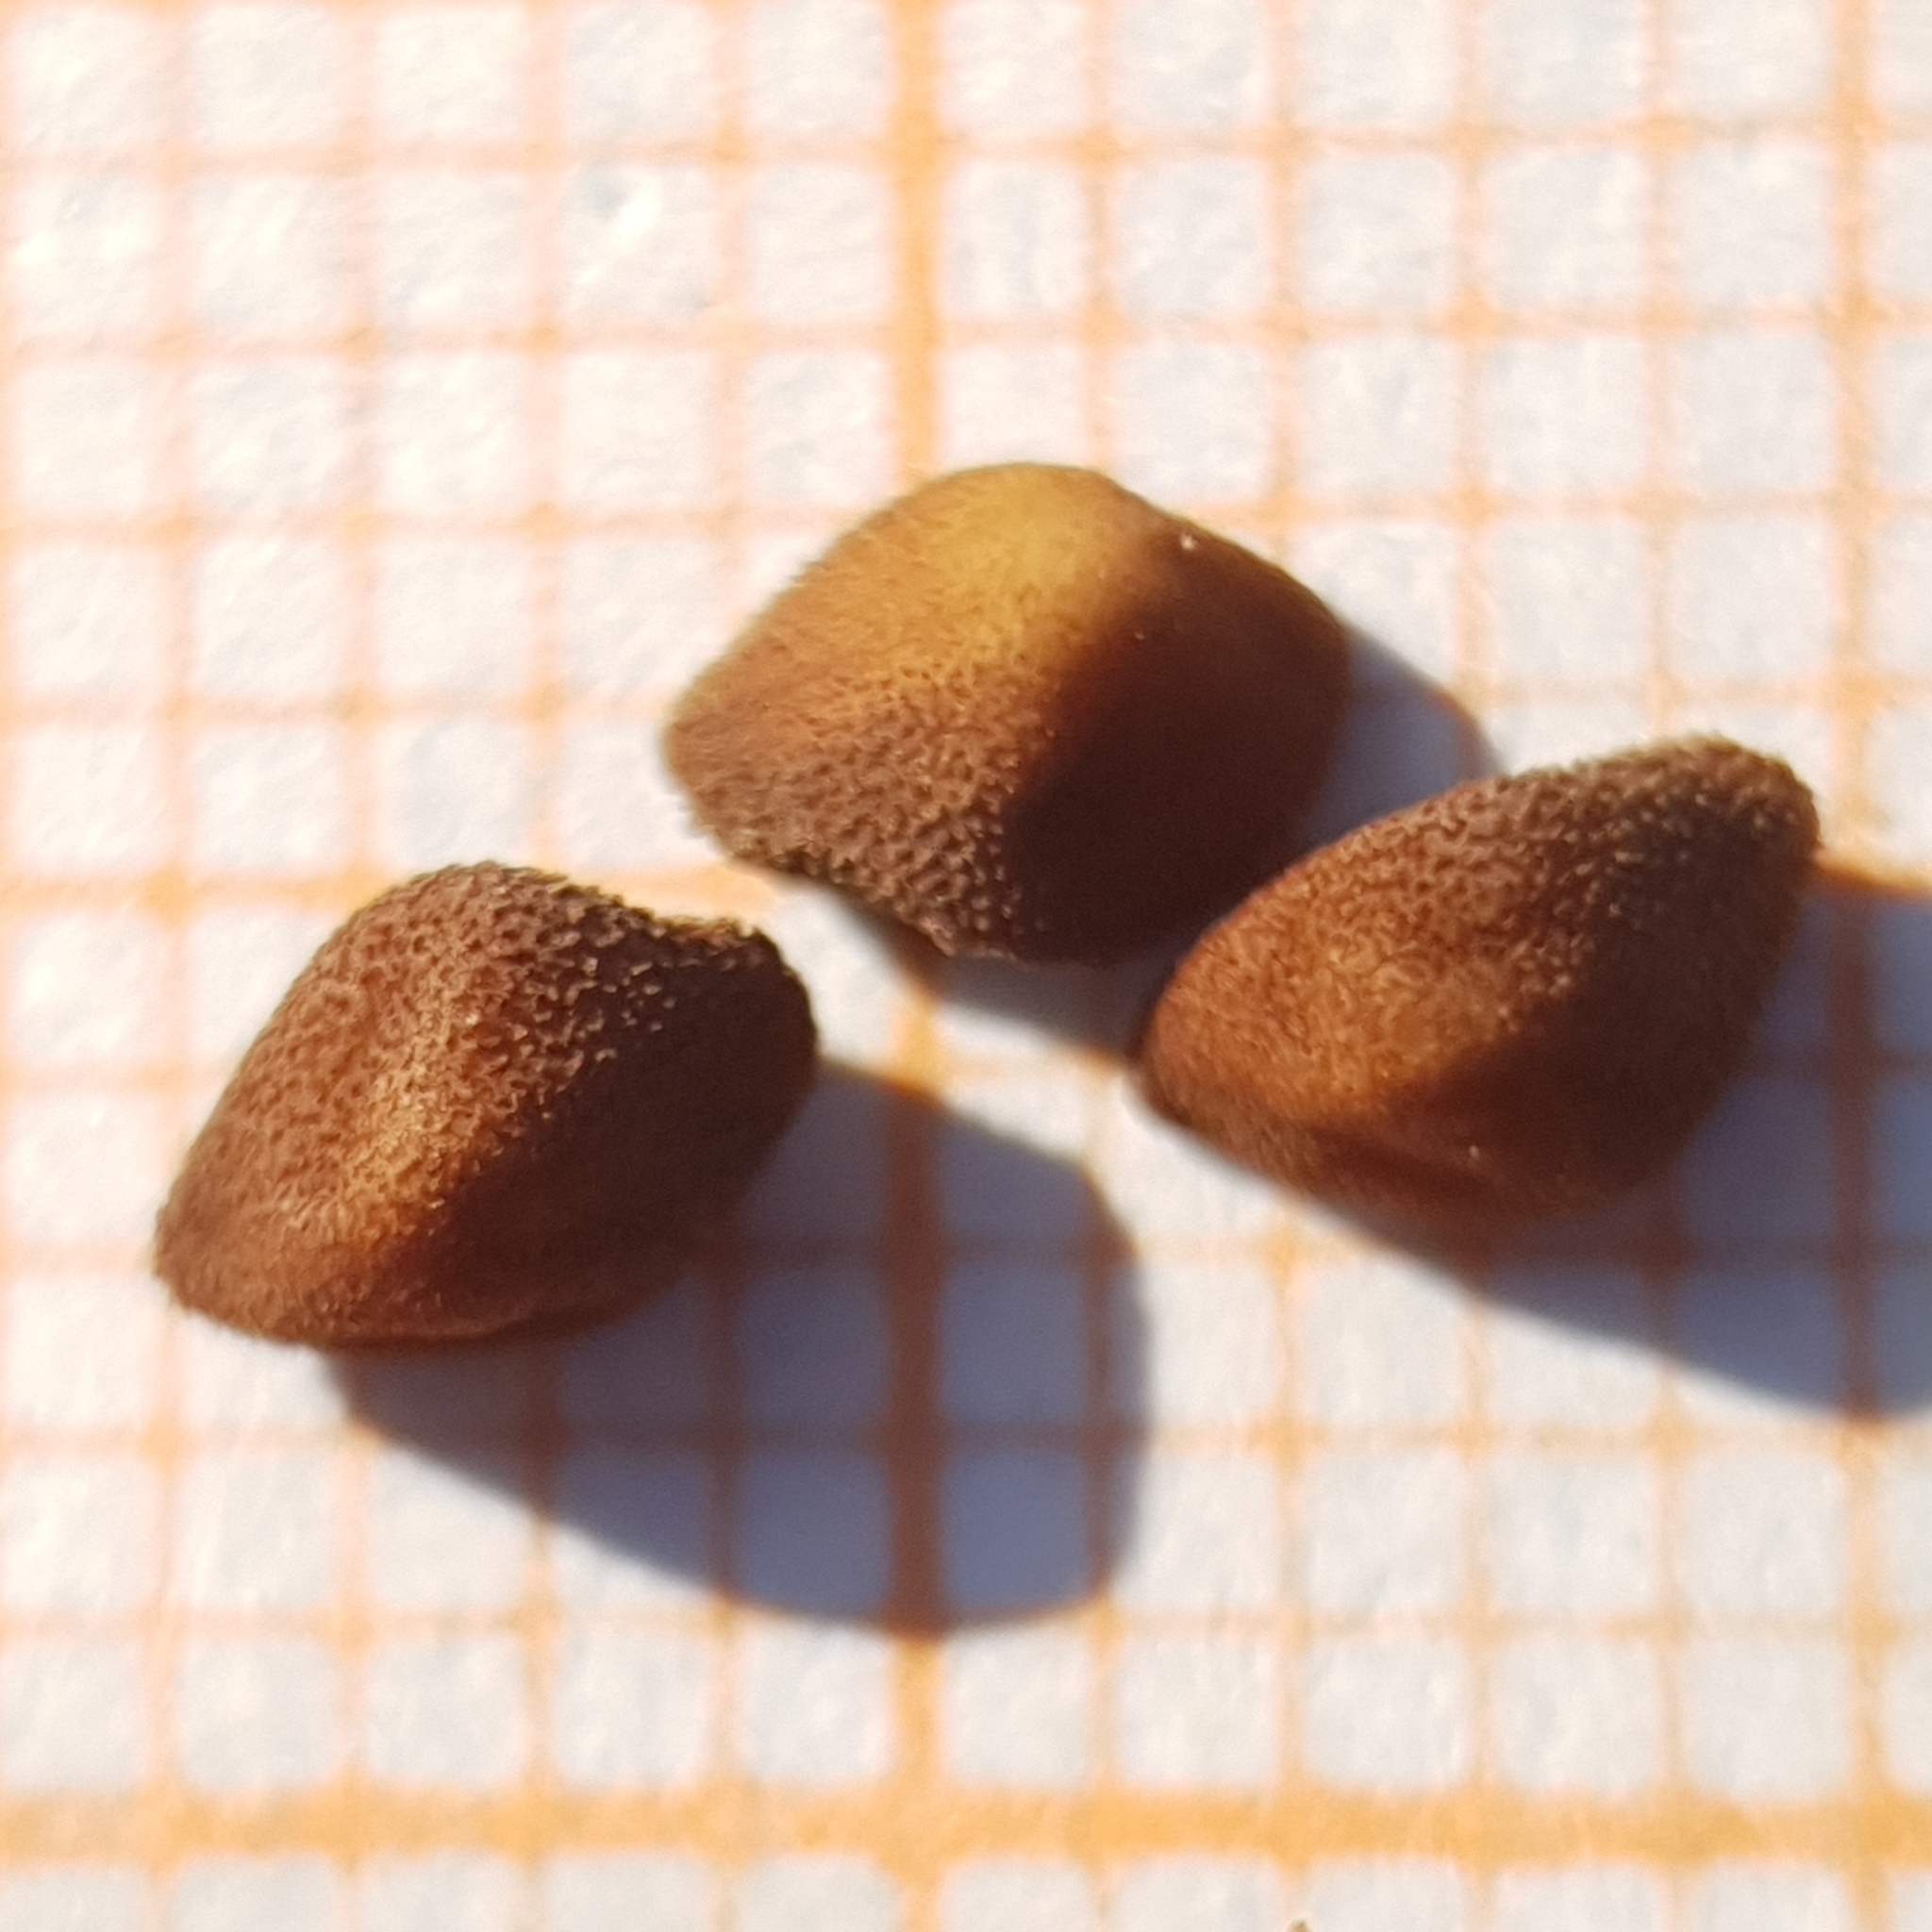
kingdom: Plantae
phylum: Tracheophyta
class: Magnoliopsida
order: Solanales
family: Convolvulaceae
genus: Convolvulus
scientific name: Convolvulus arvensis
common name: Field bindweed
